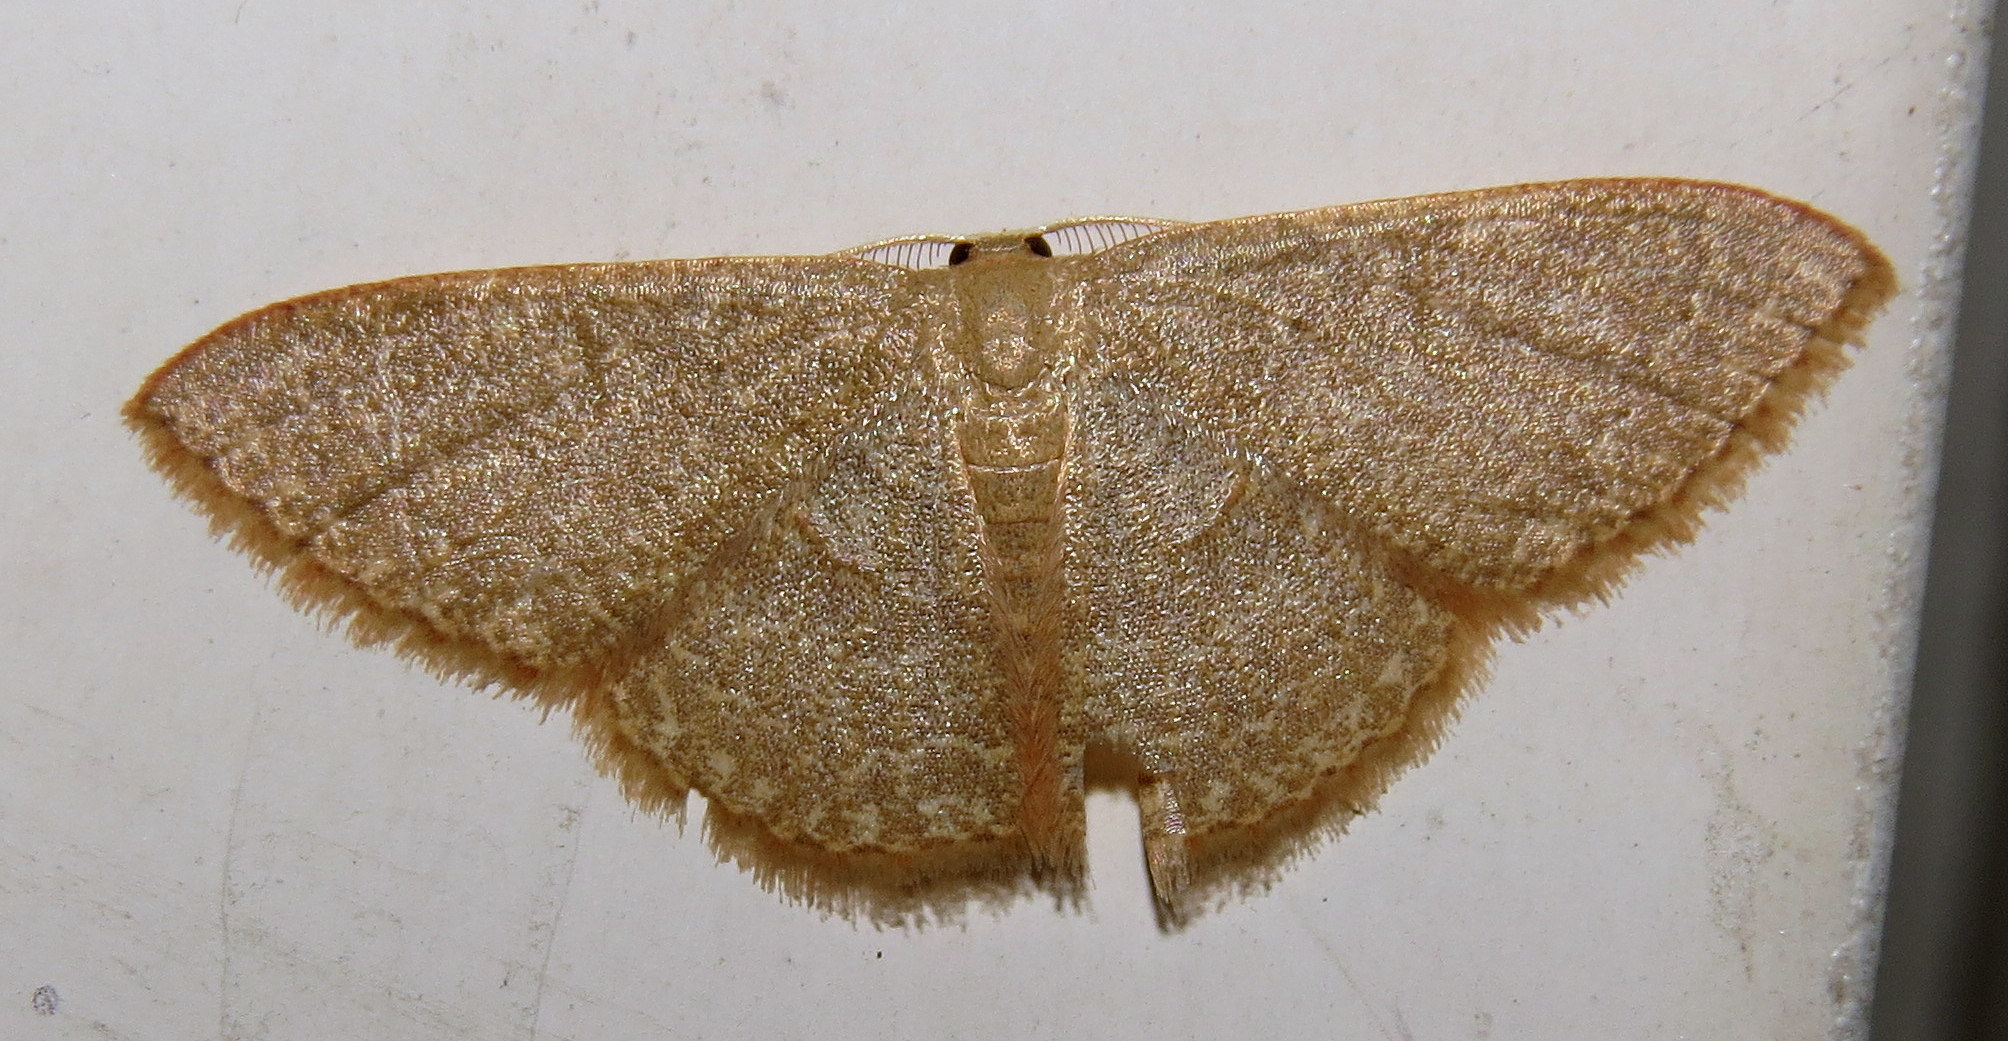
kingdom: Animalia
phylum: Arthropoda
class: Insecta
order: Lepidoptera
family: Geometridae
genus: Pleuroprucha
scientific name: Pleuroprucha insulsaria
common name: Common tan wave
